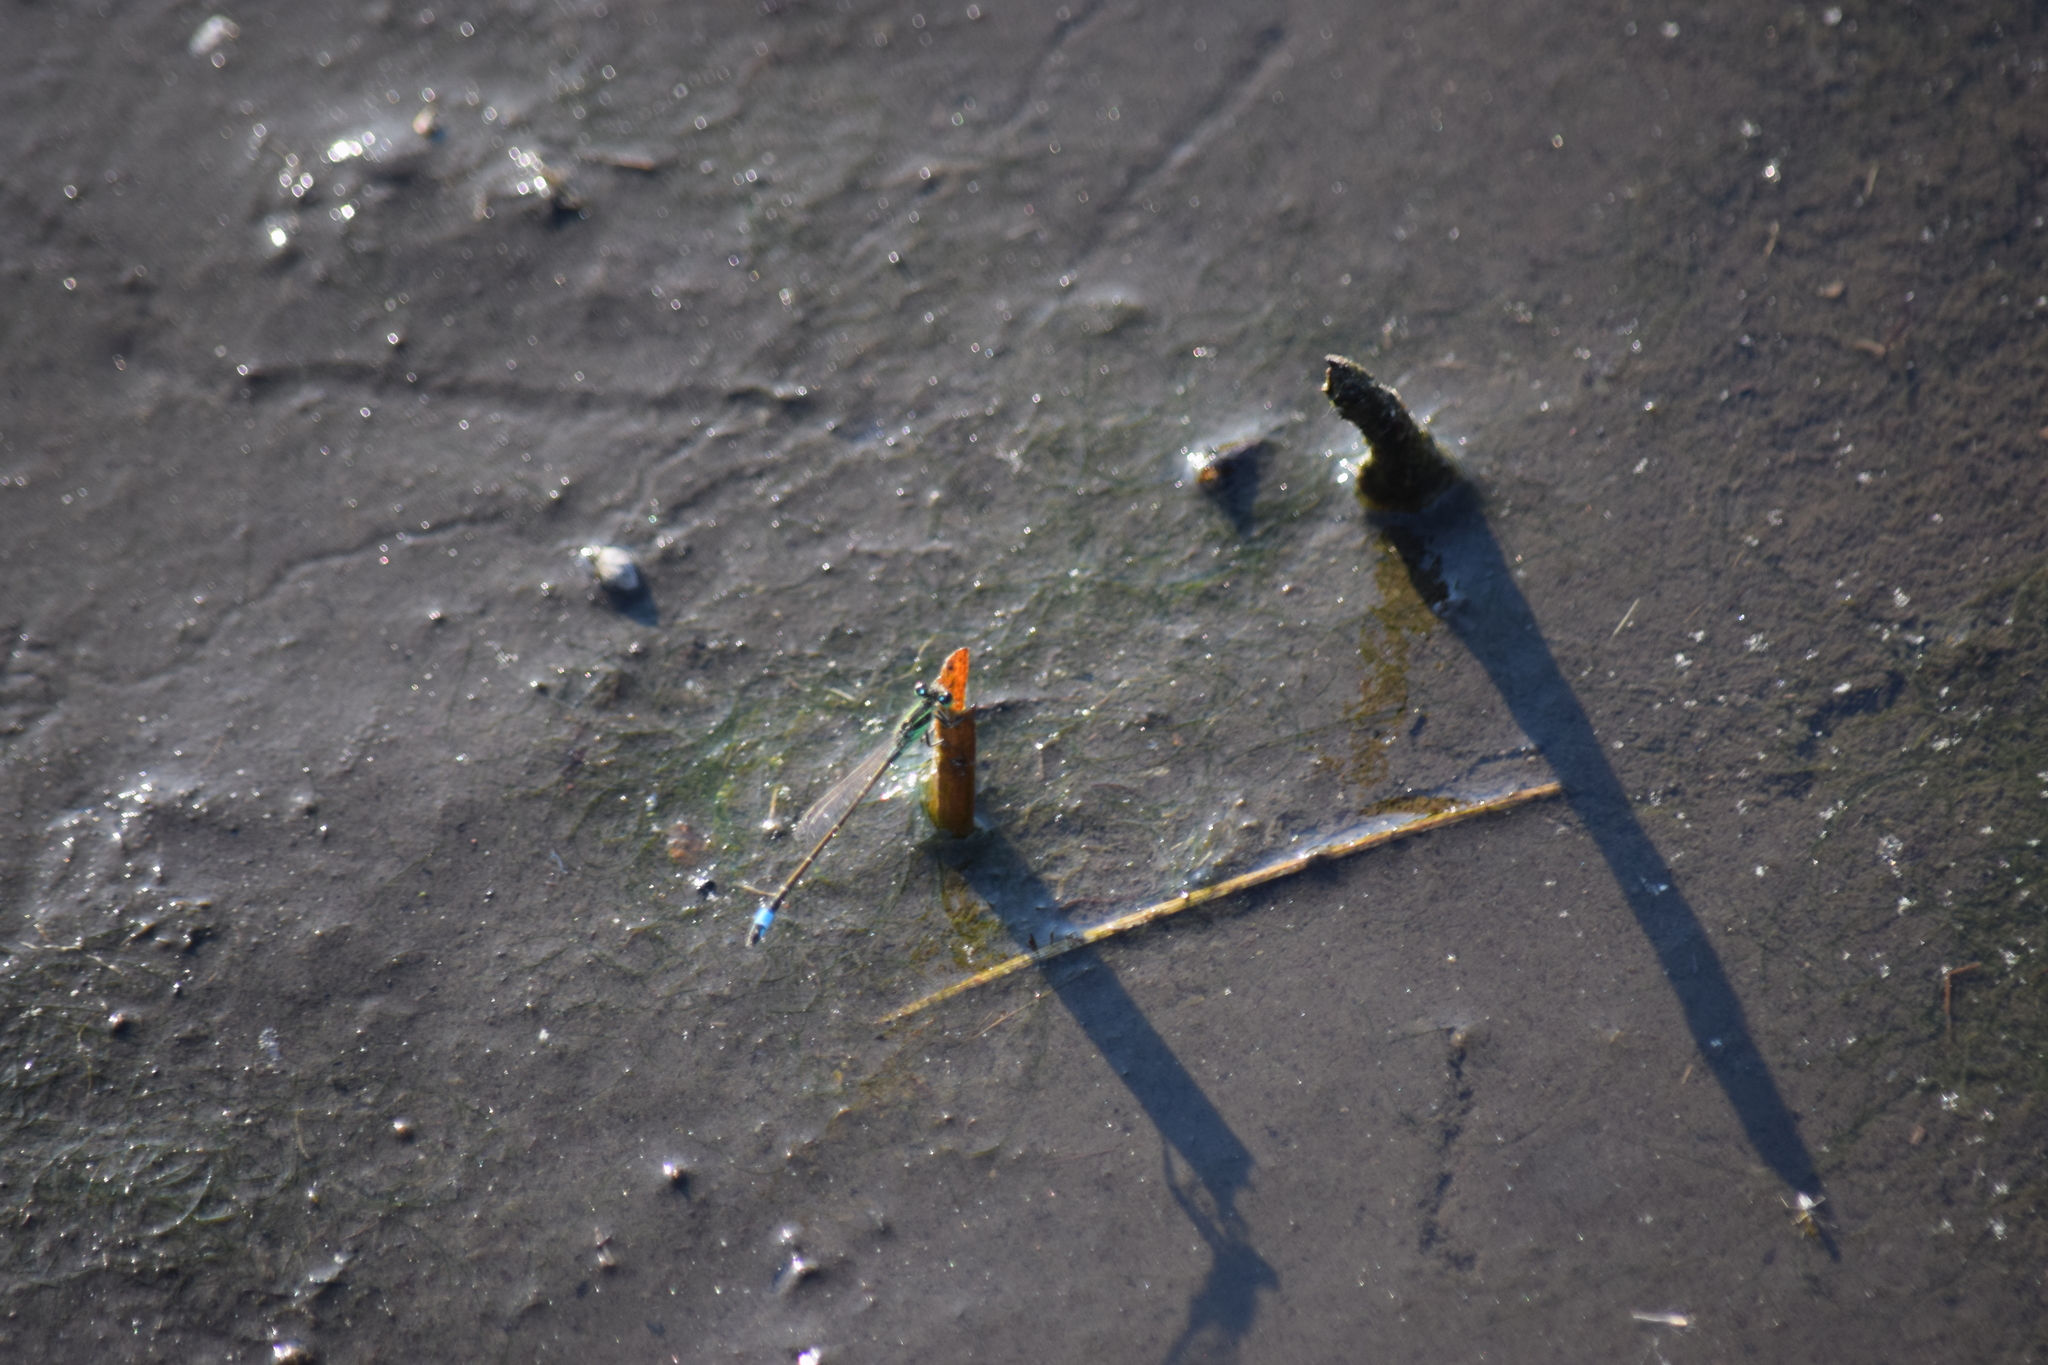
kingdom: Animalia
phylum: Arthropoda
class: Insecta
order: Odonata
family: Coenagrionidae
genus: Ischnura
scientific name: Ischnura ramburii
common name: Rambur's forktail
